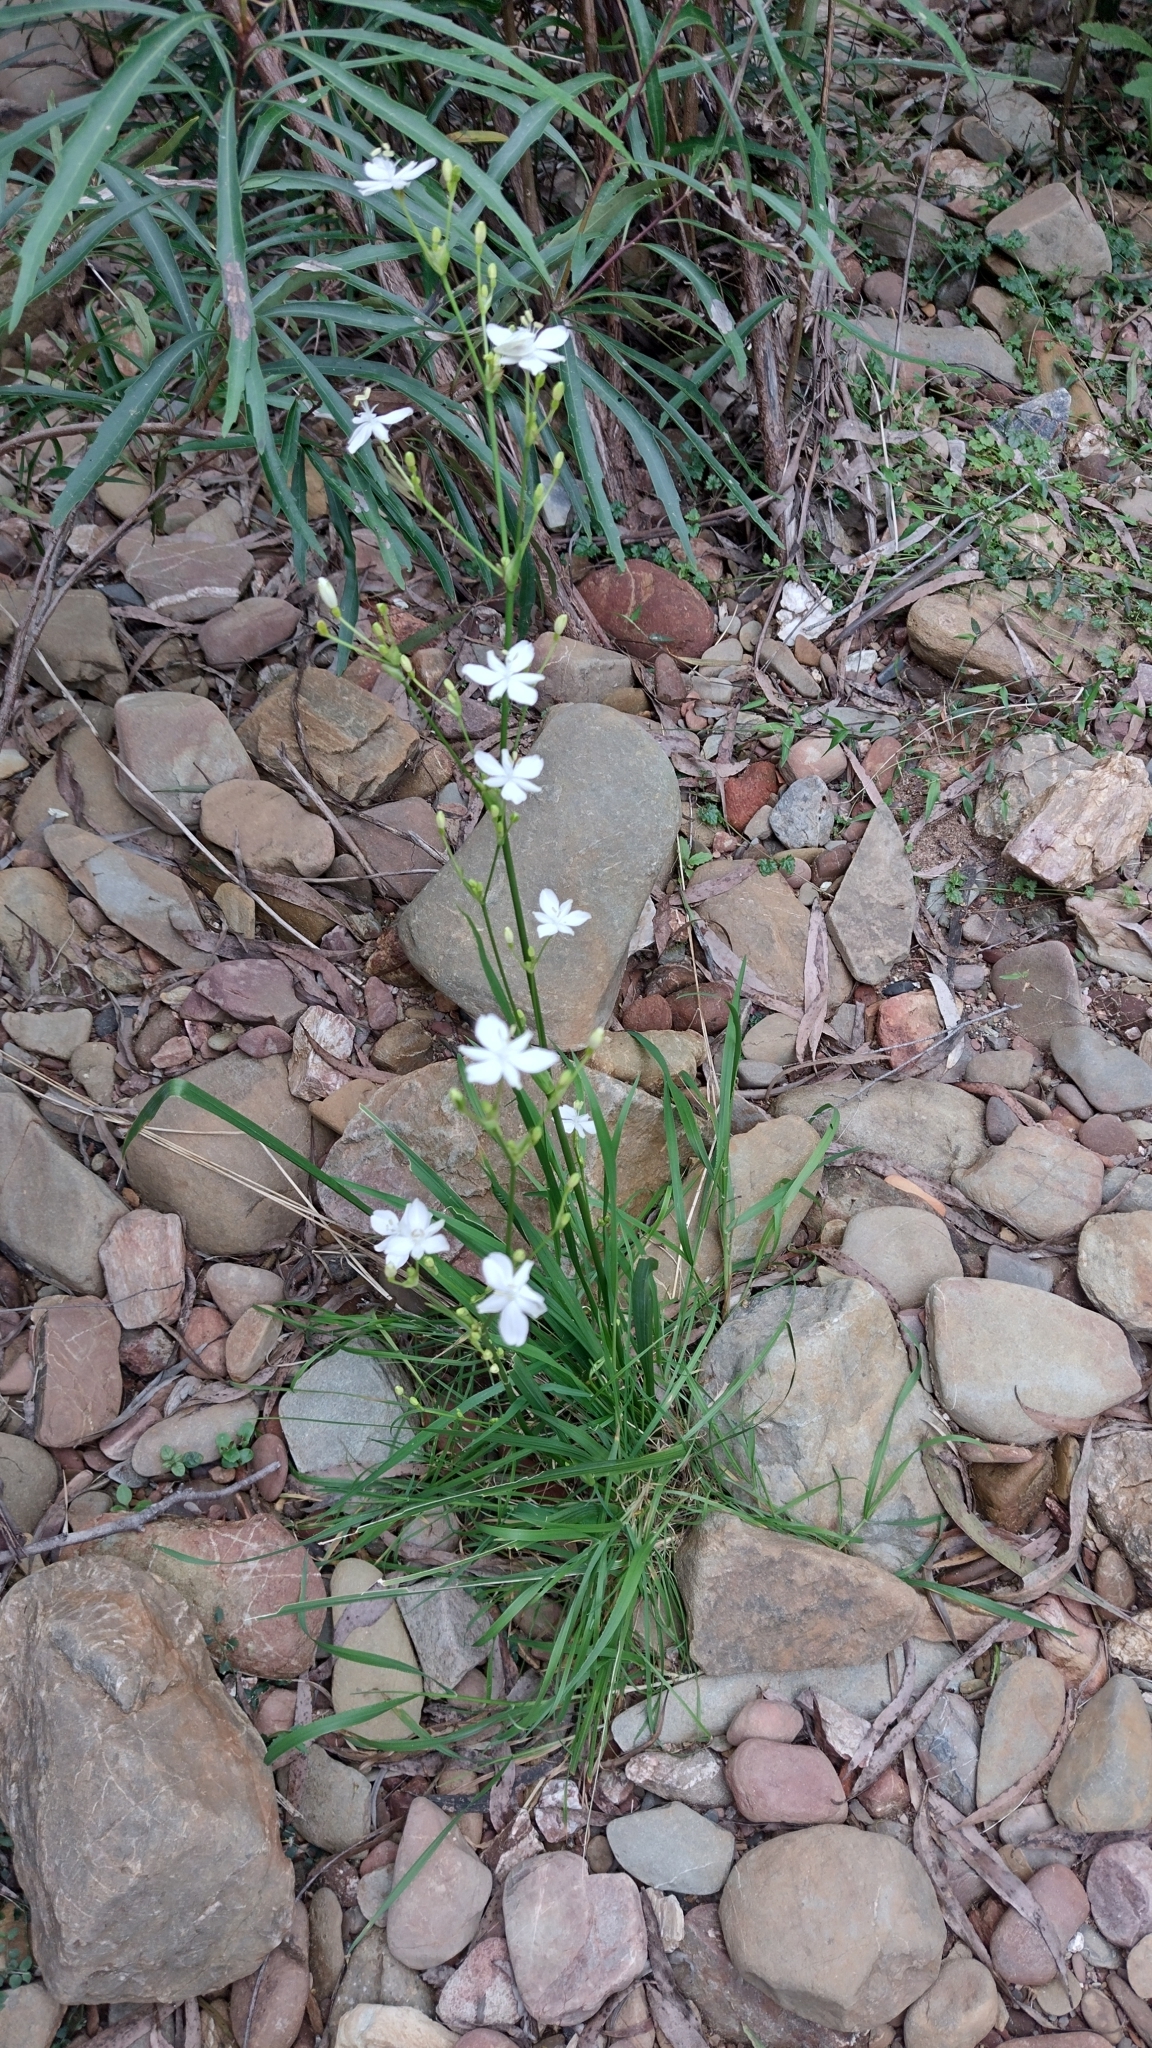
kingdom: Plantae
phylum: Tracheophyta
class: Liliopsida
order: Asparagales
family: Iridaceae
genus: Libertia
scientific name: Libertia paniculata
